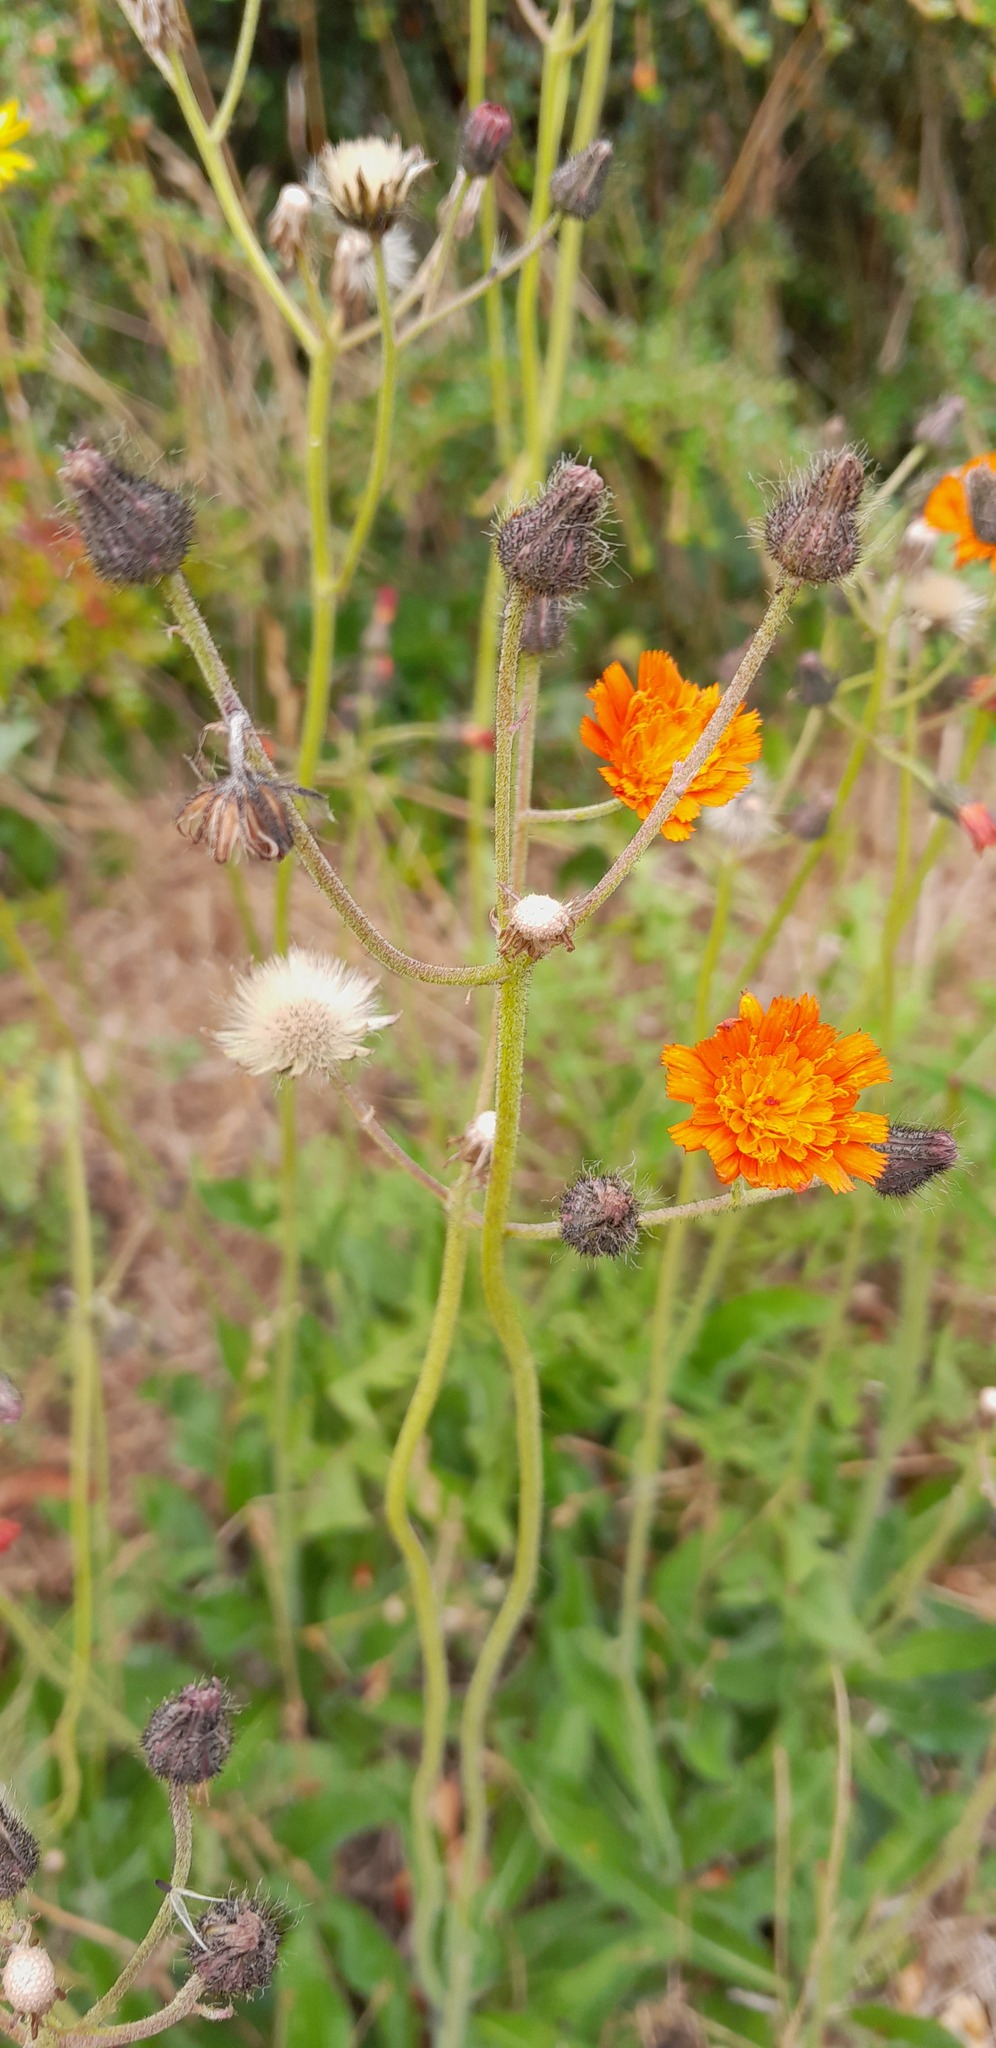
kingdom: Plantae
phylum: Tracheophyta
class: Magnoliopsida
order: Asterales
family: Asteraceae
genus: Pilosella
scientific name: Pilosella aurantiaca
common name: Fox-and-cubs
